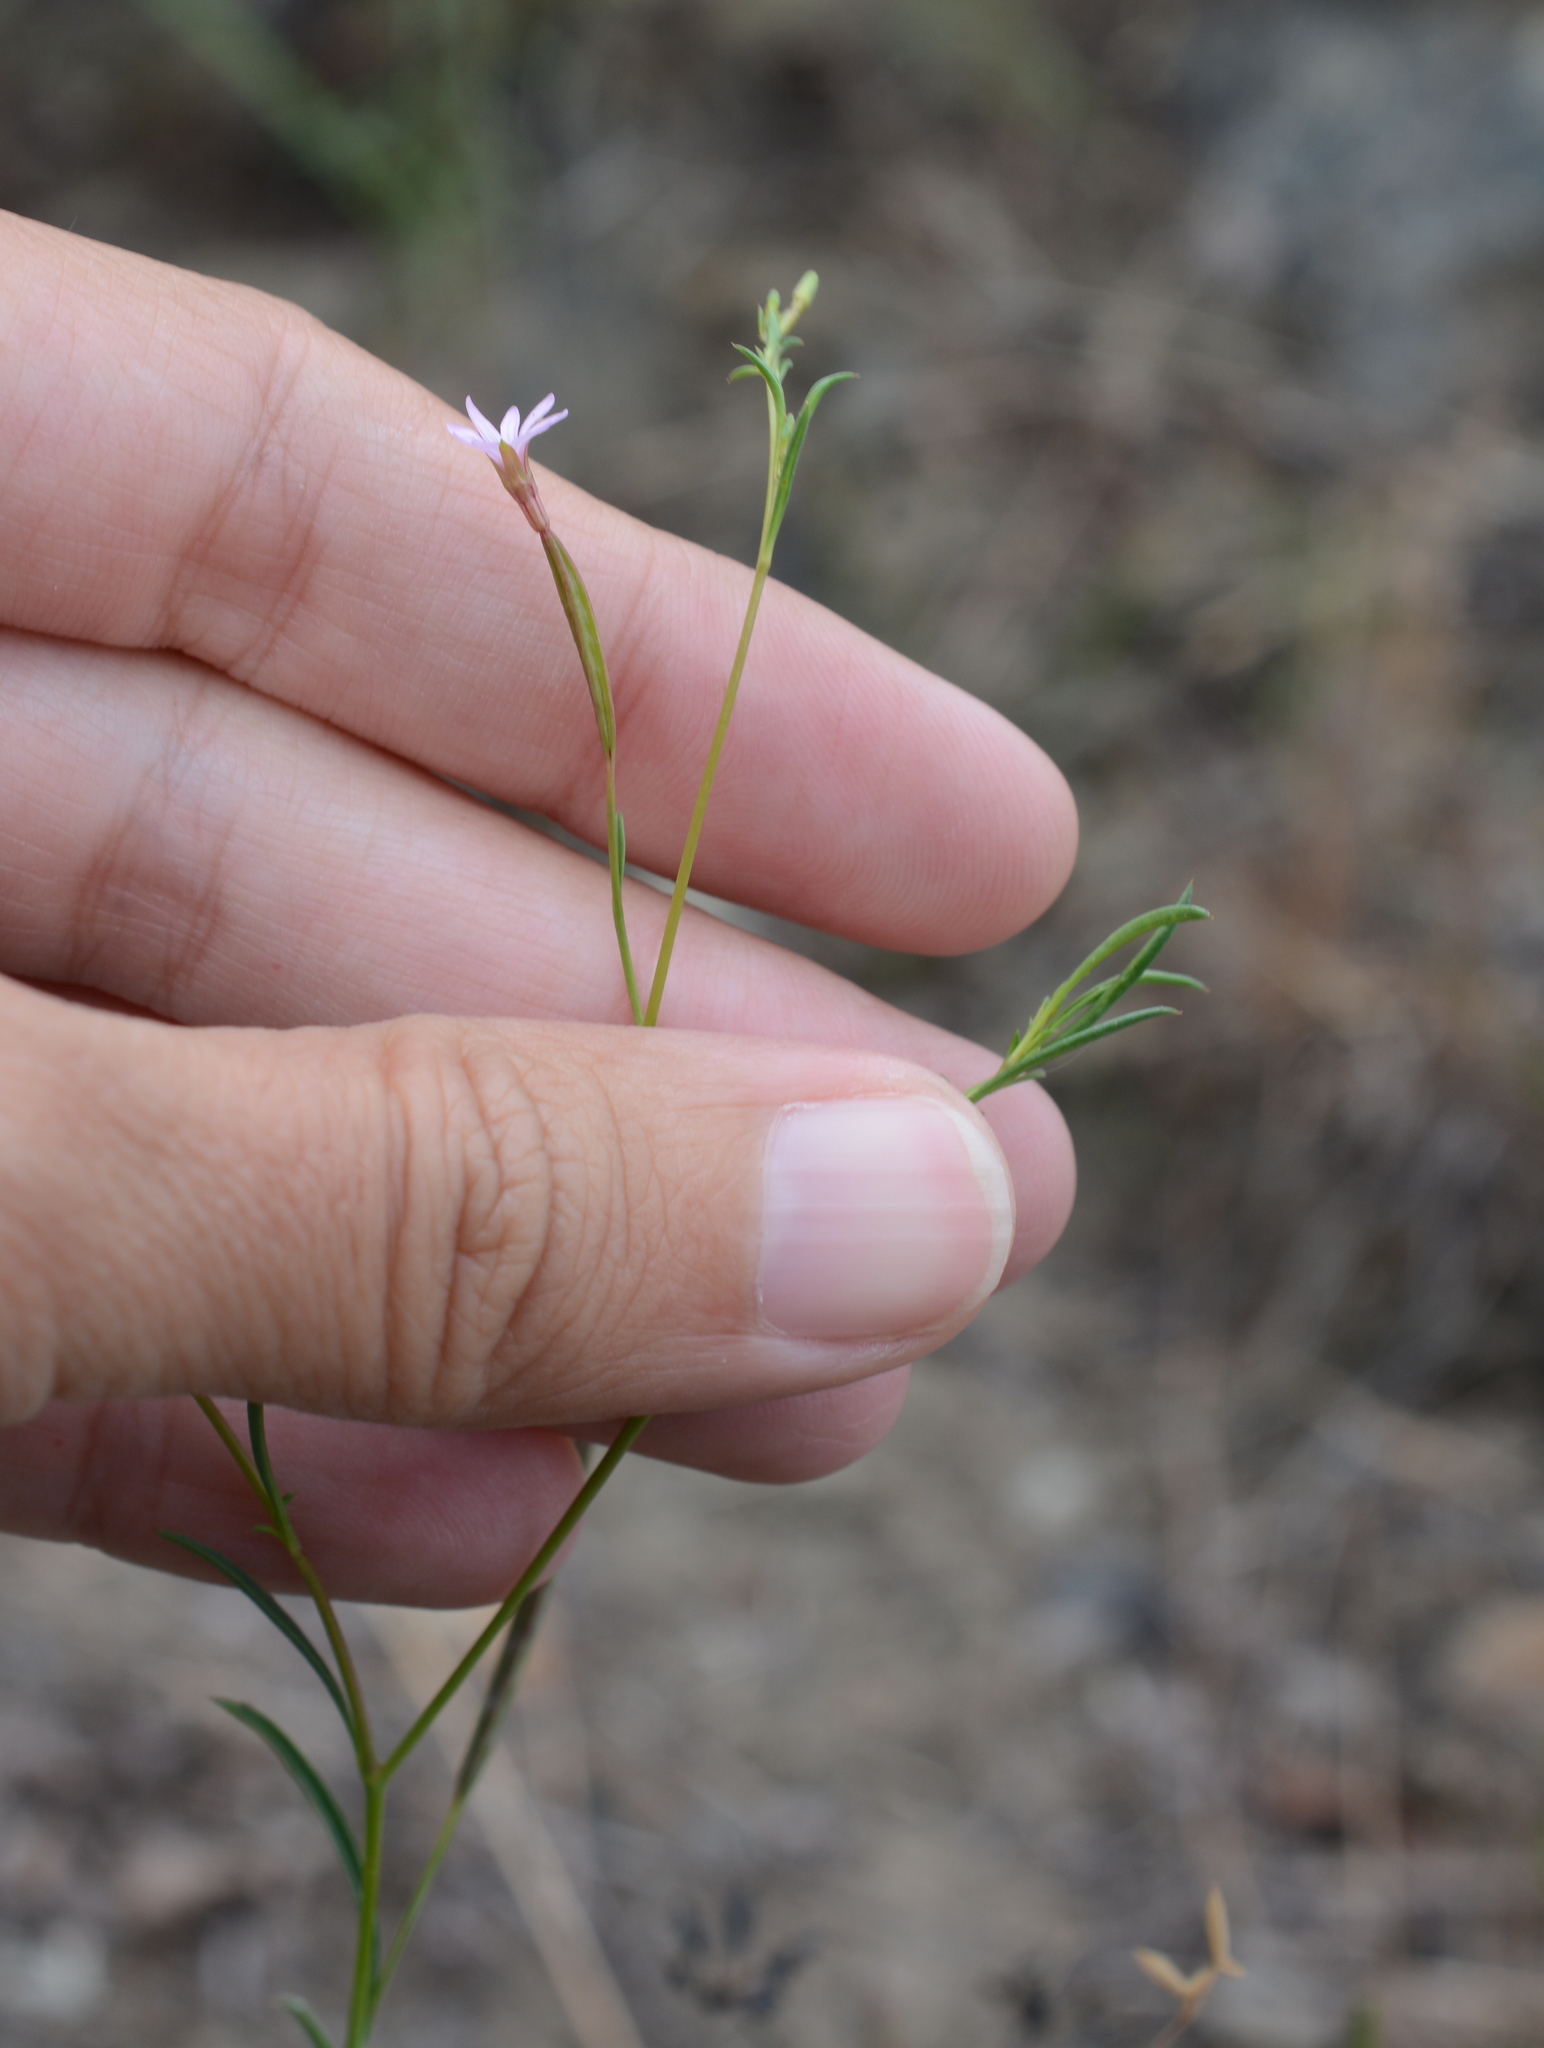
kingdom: Plantae
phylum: Tracheophyta
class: Magnoliopsida
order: Myrtales
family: Onagraceae
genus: Epilobium
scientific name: Epilobium brachycarpum
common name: Annual willowherb
